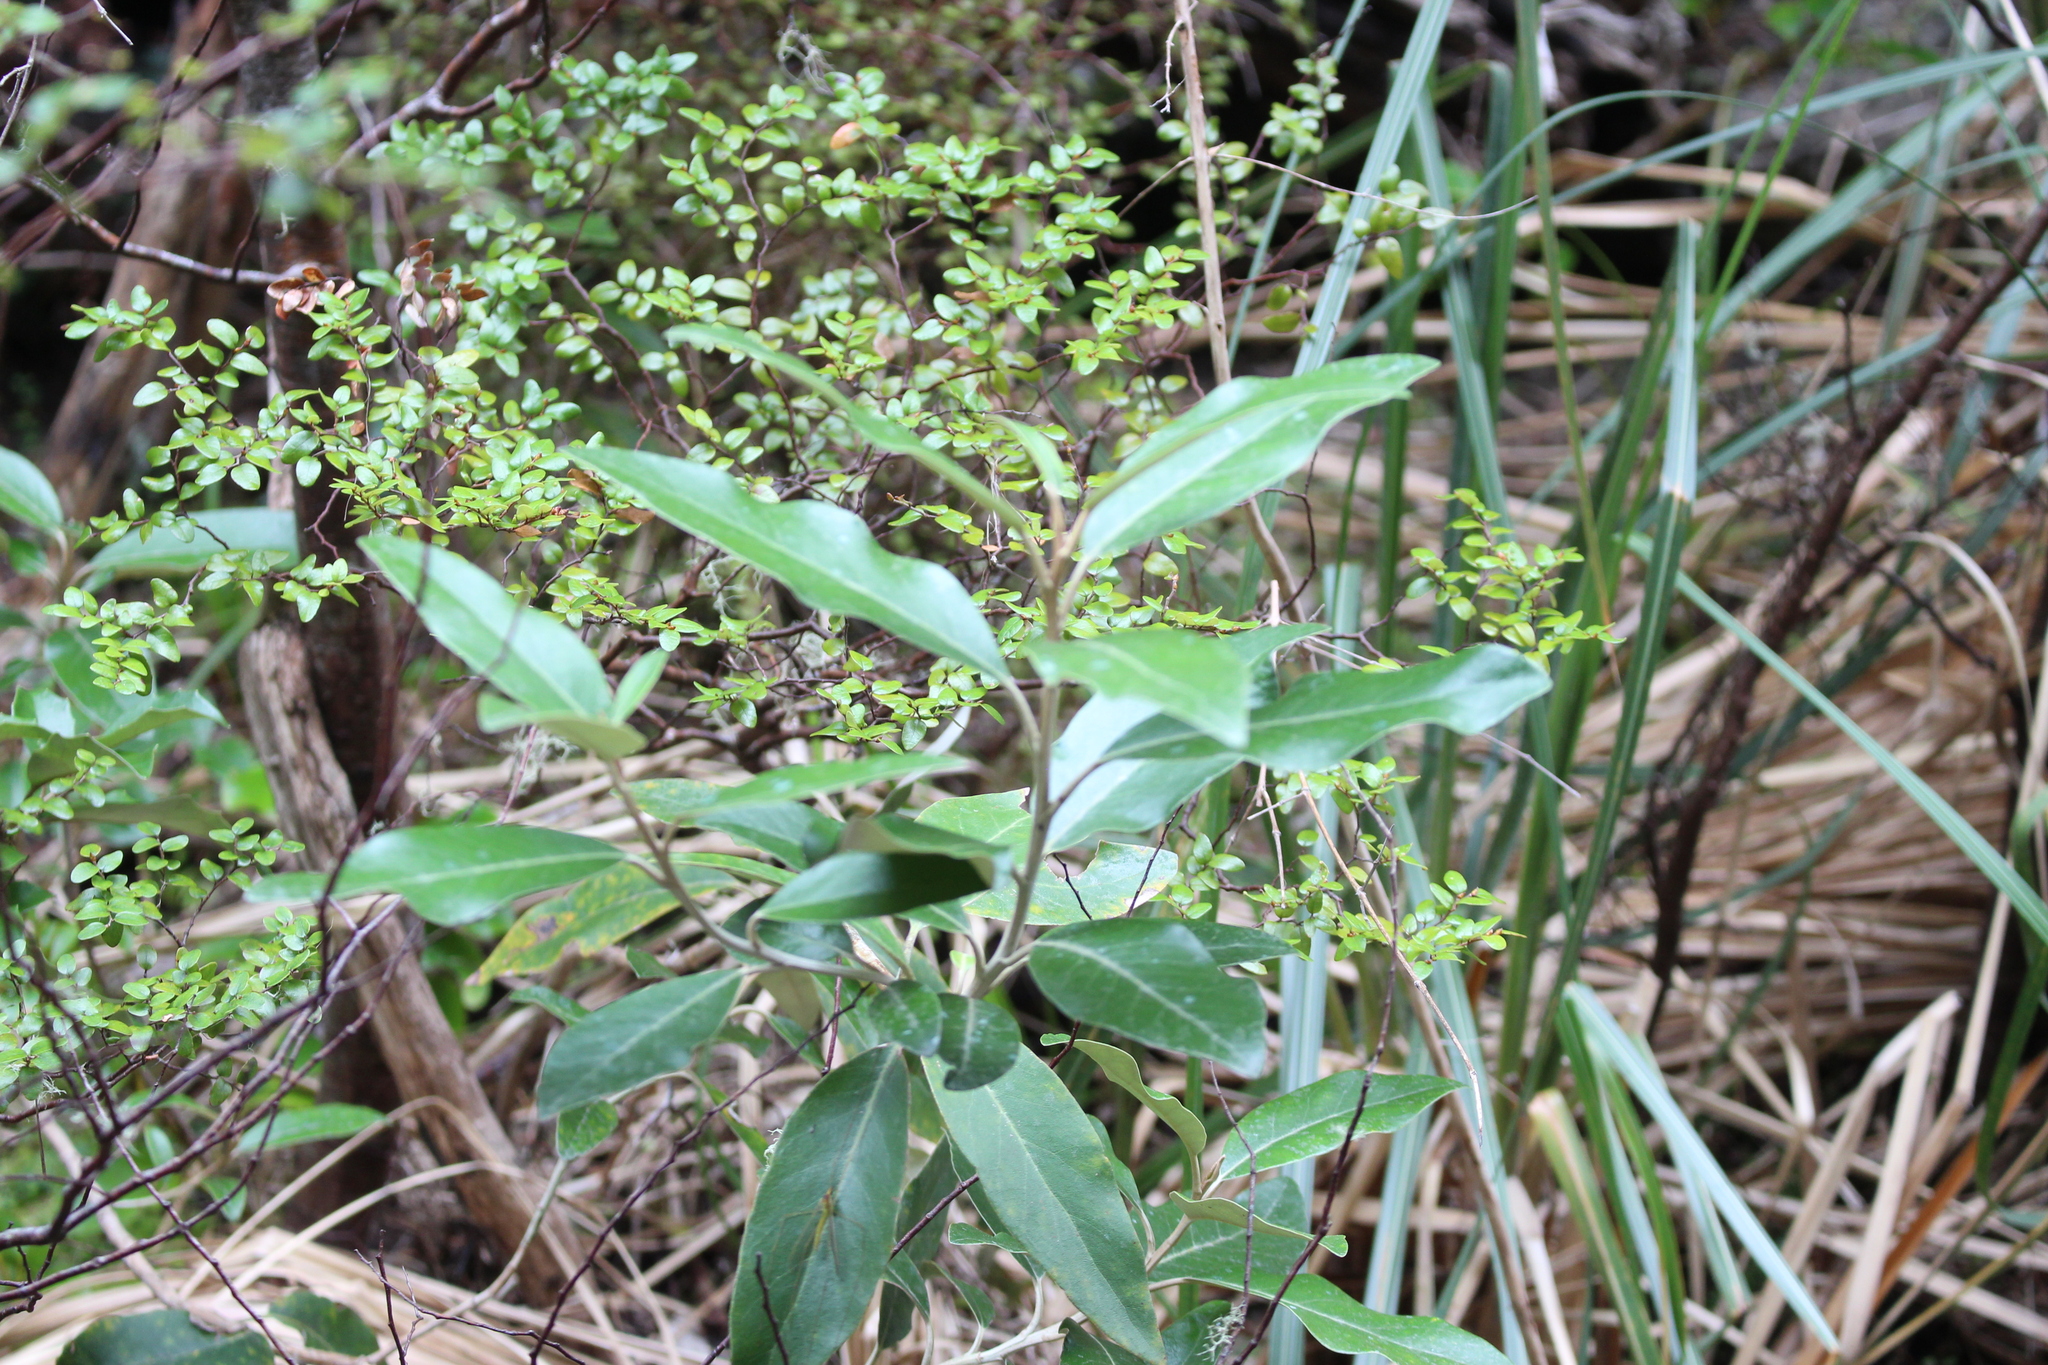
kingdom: Plantae
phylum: Tracheophyta
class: Magnoliopsida
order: Asterales
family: Asteraceae
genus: Olearia
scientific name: Olearia avicenniifolia
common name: Mangrove-leaf daisybush
